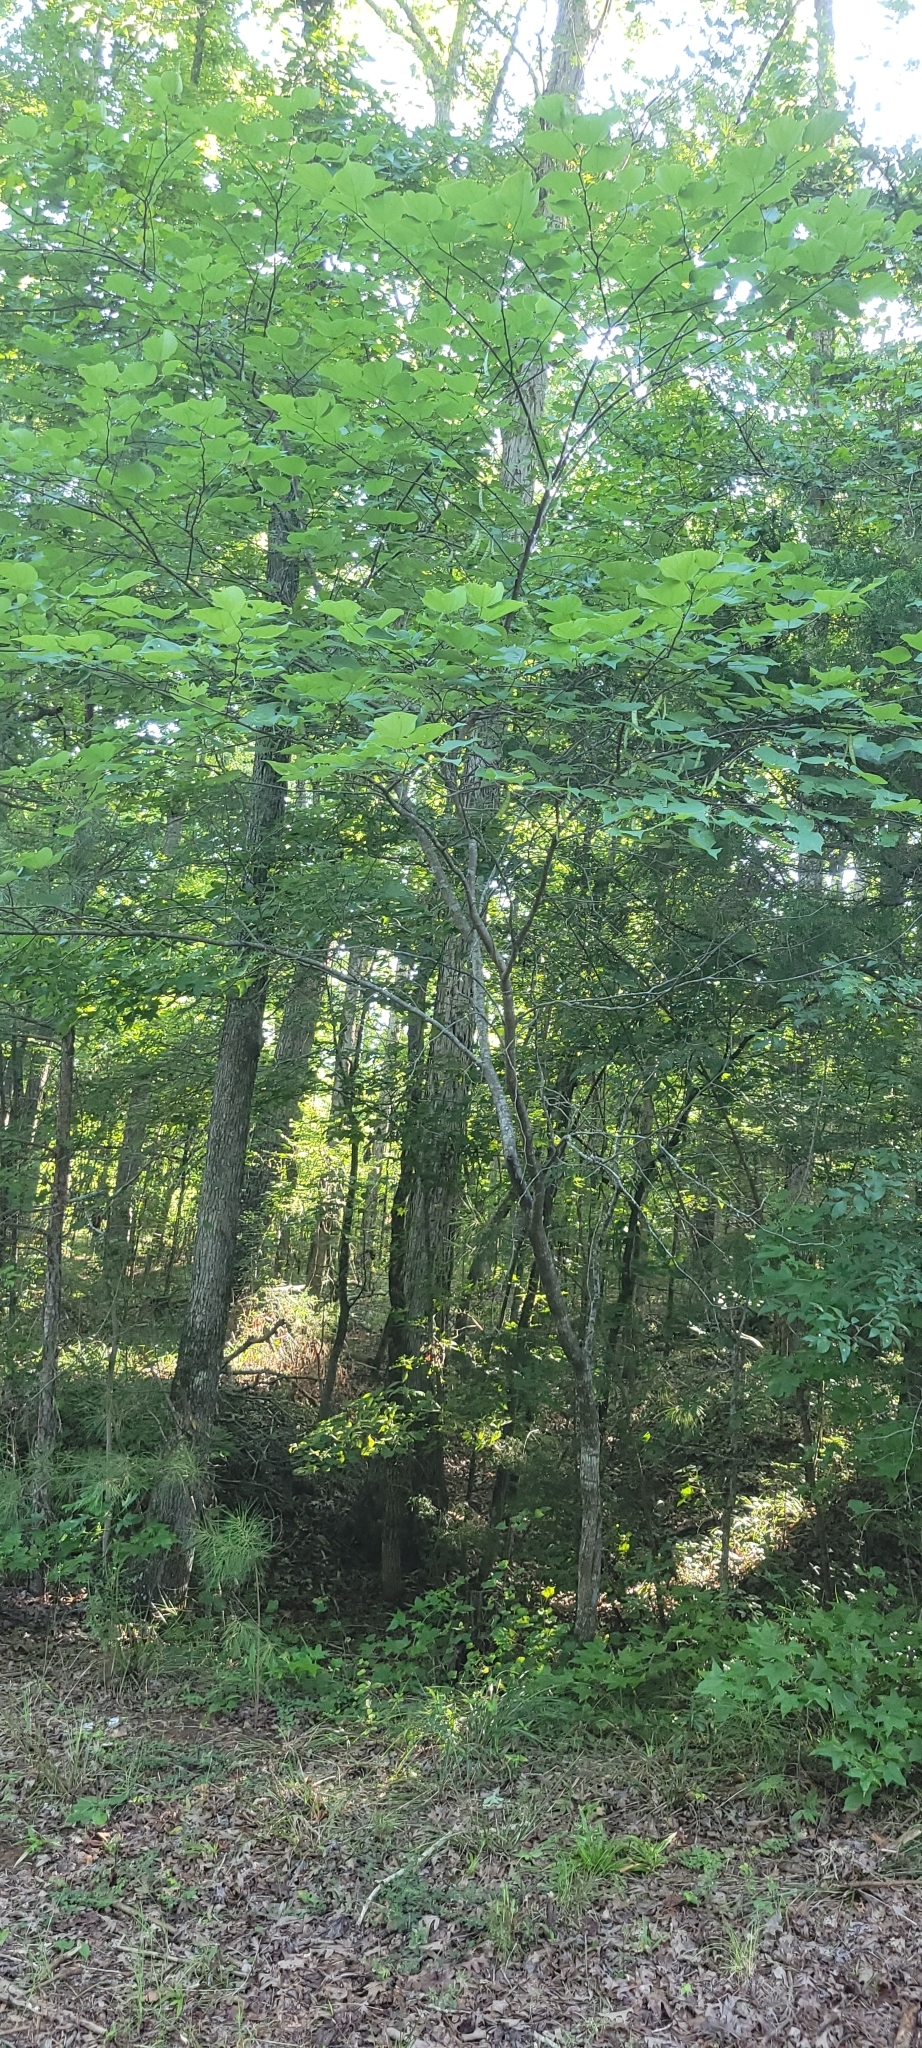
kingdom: Plantae
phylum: Tracheophyta
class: Magnoliopsida
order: Fabales
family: Fabaceae
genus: Cercis
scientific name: Cercis canadensis
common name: Eastern redbud
